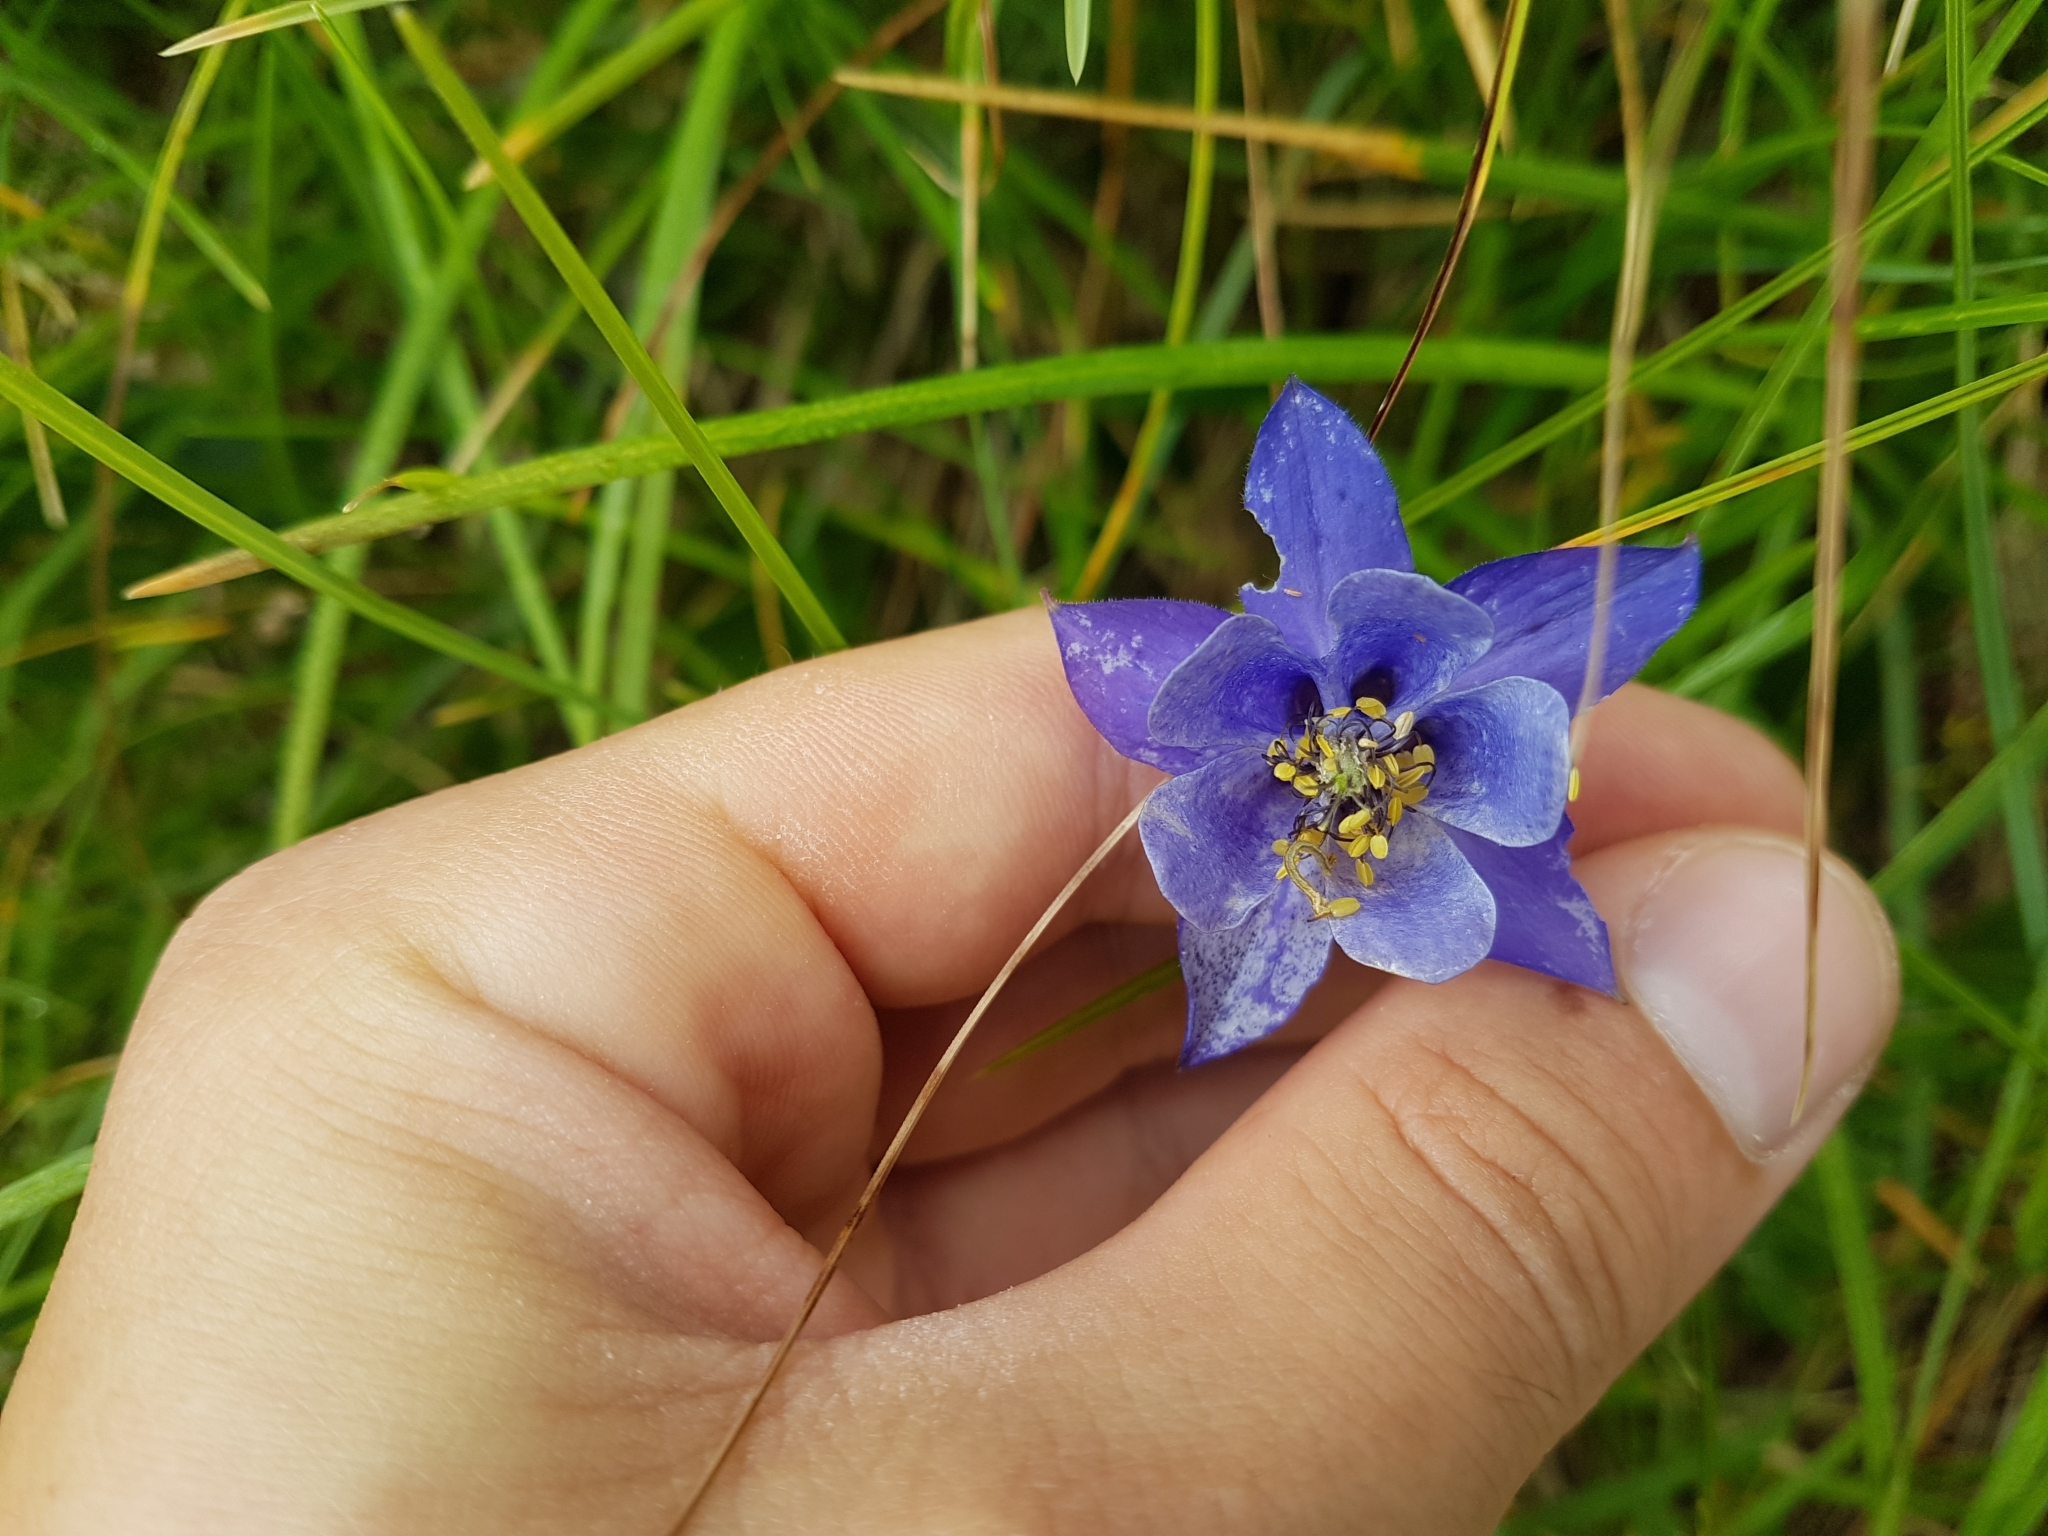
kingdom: Plantae
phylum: Tracheophyta
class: Magnoliopsida
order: Ranunculales
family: Ranunculaceae
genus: Aquilegia
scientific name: Aquilegia vulgaris
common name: Columbine
